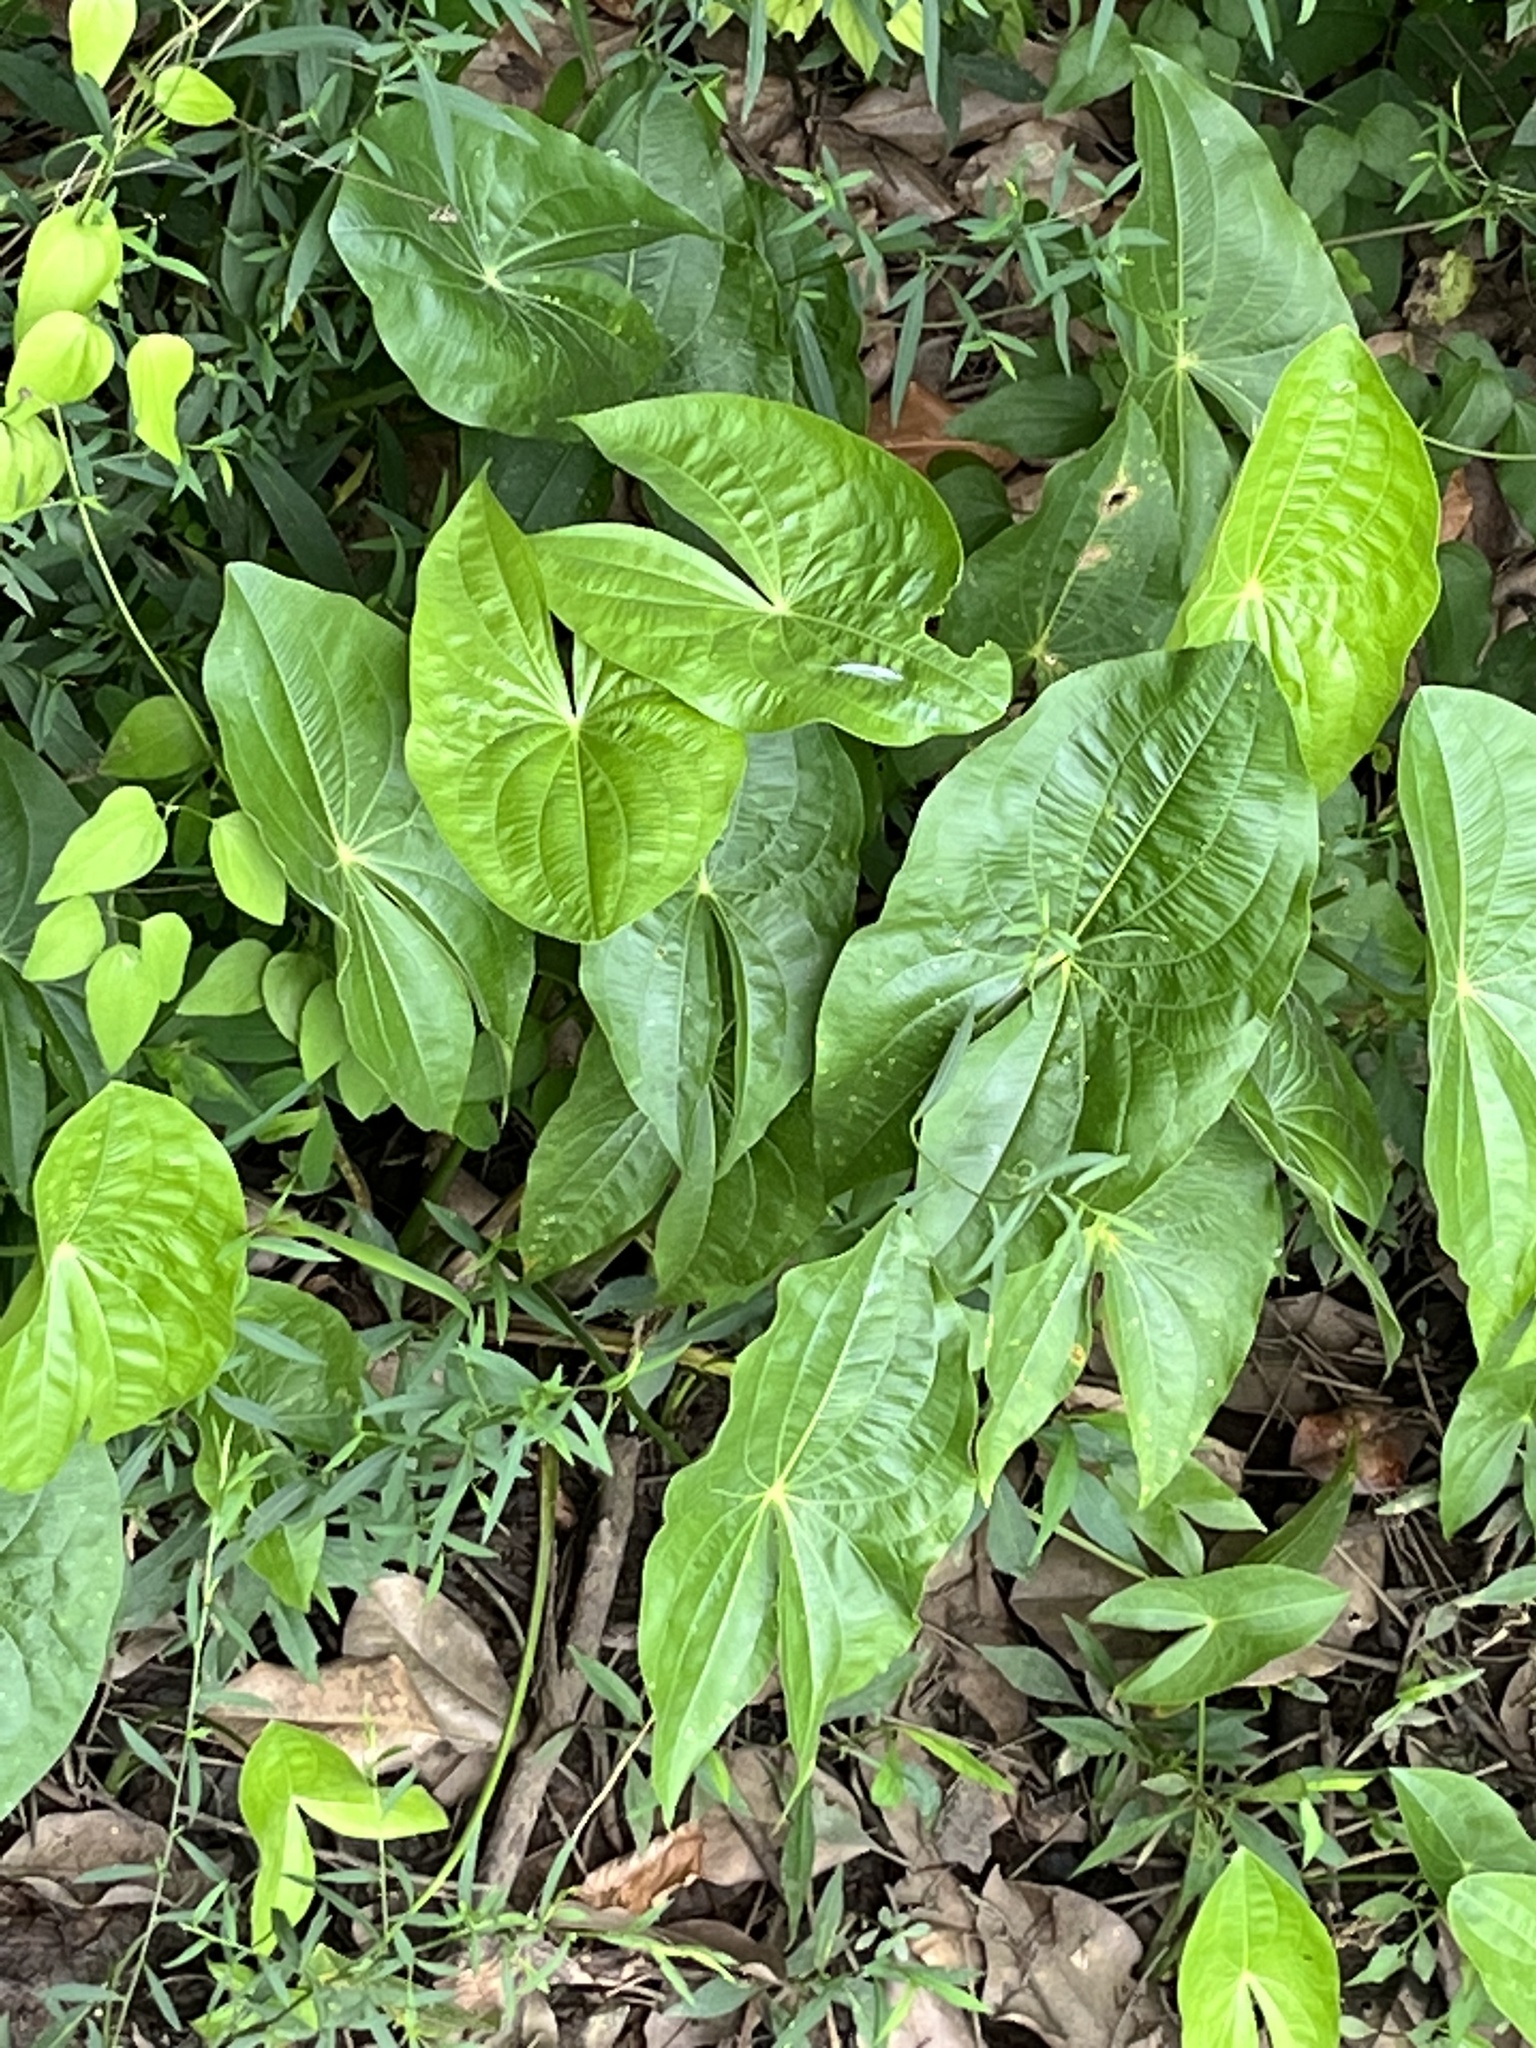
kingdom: Plantae
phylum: Tracheophyta
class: Liliopsida
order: Alismatales
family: Alismataceae
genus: Sagittaria
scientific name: Sagittaria latifolia
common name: Duck-potato
